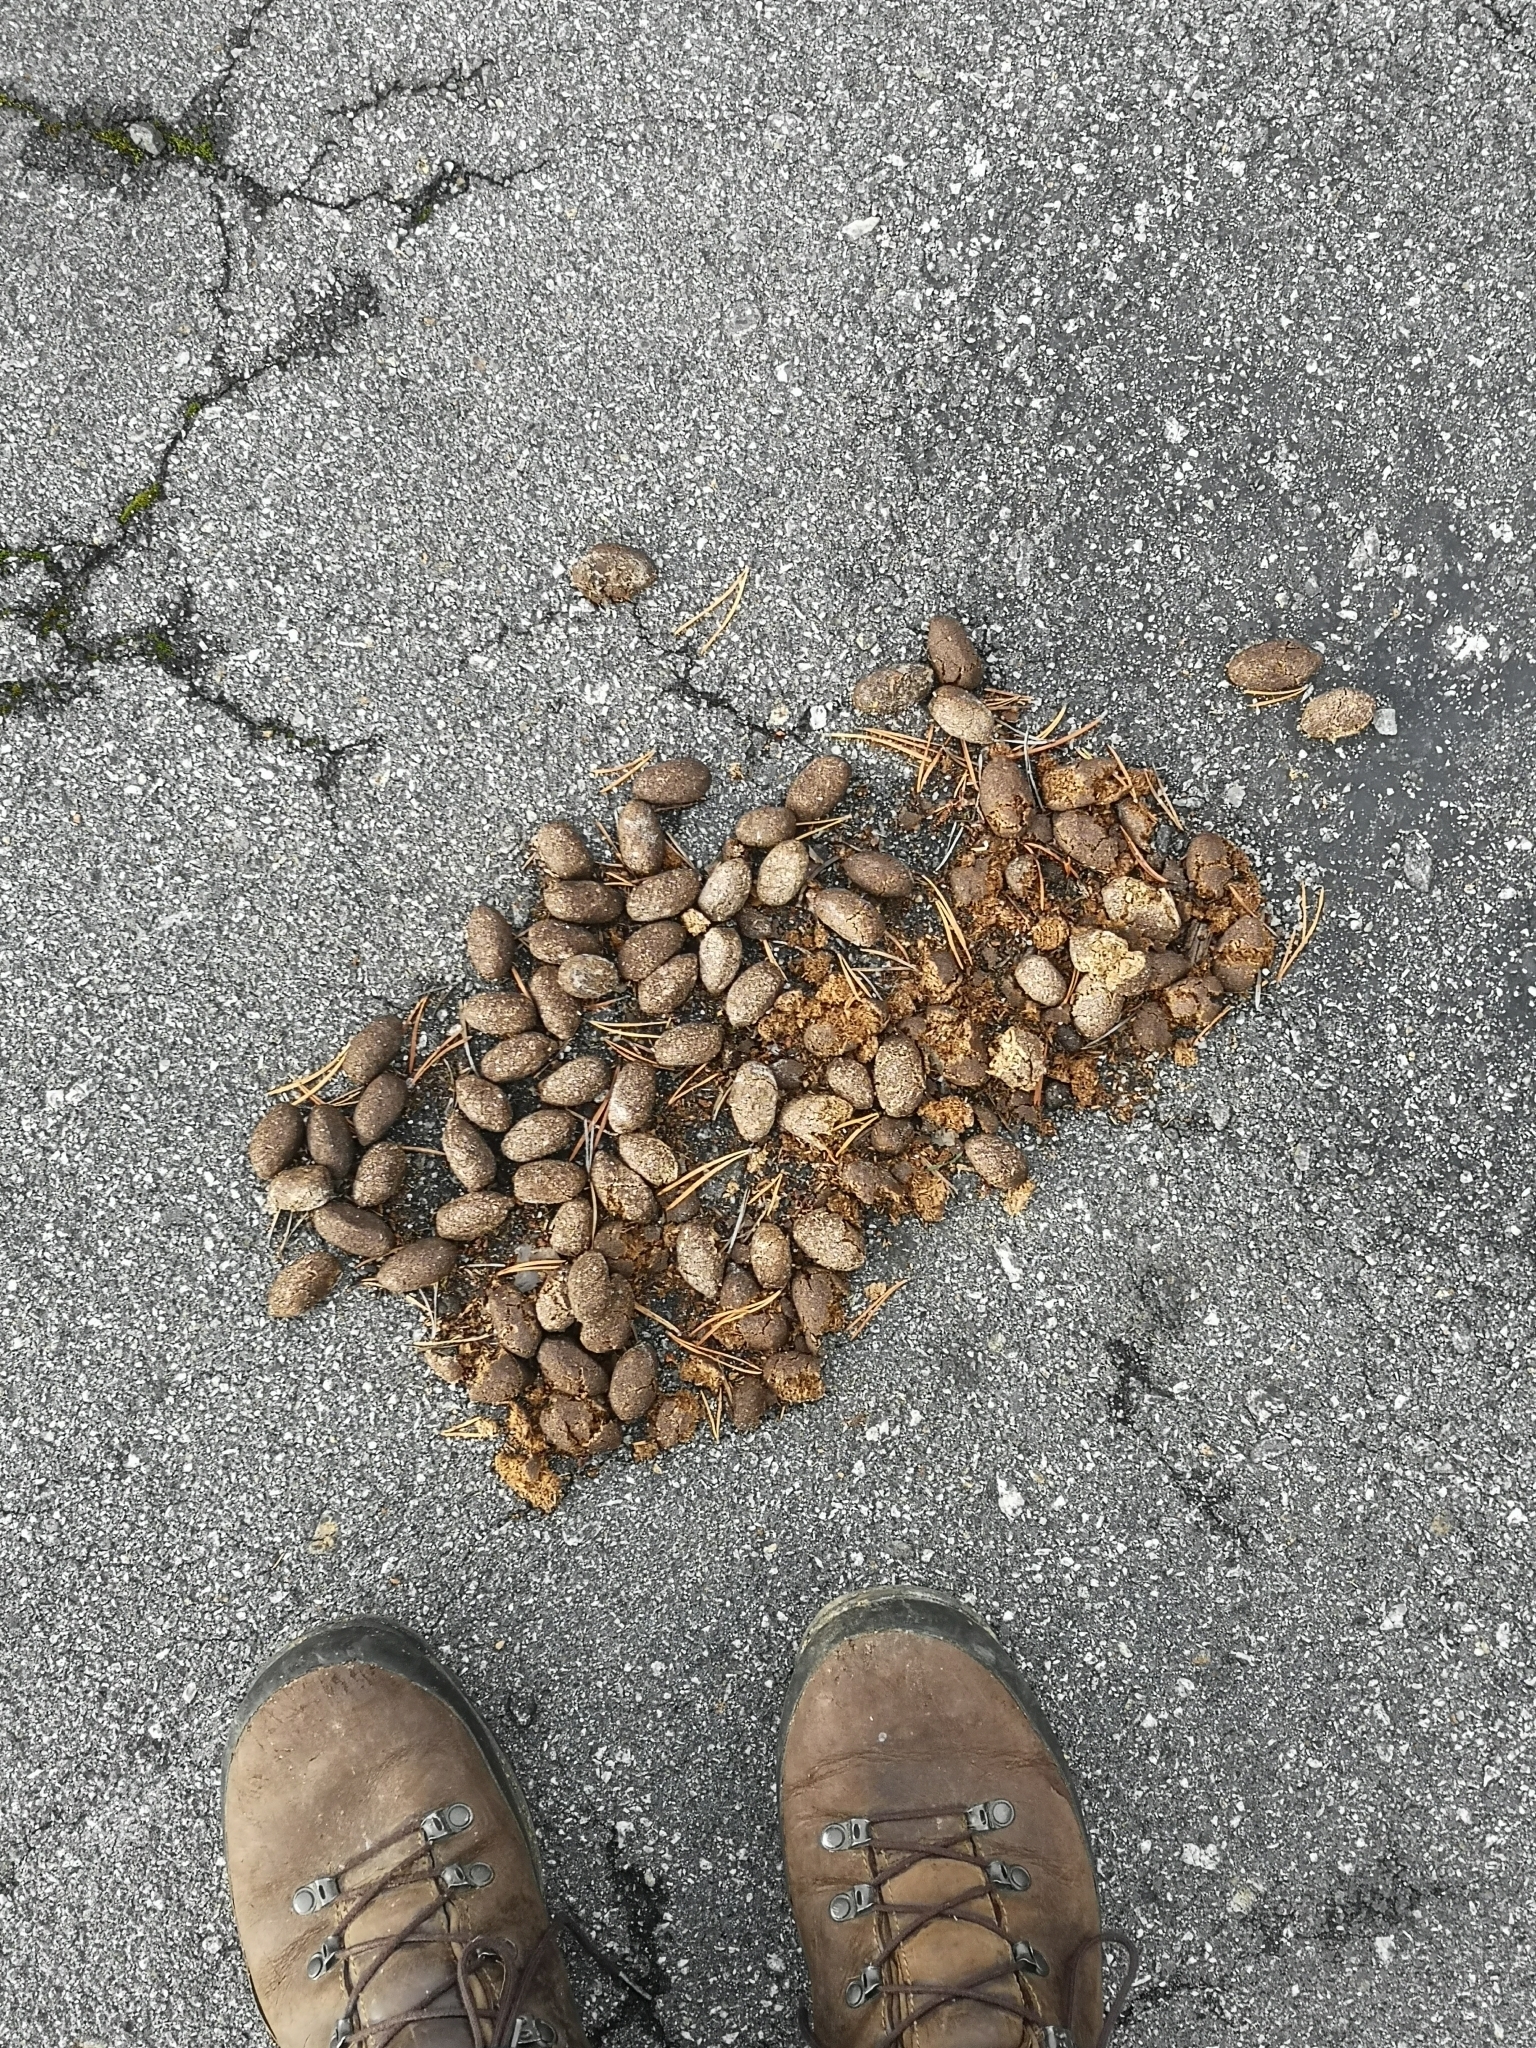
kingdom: Animalia
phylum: Chordata
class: Mammalia
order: Artiodactyla
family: Cervidae
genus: Alces
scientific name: Alces alces
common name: Moose
